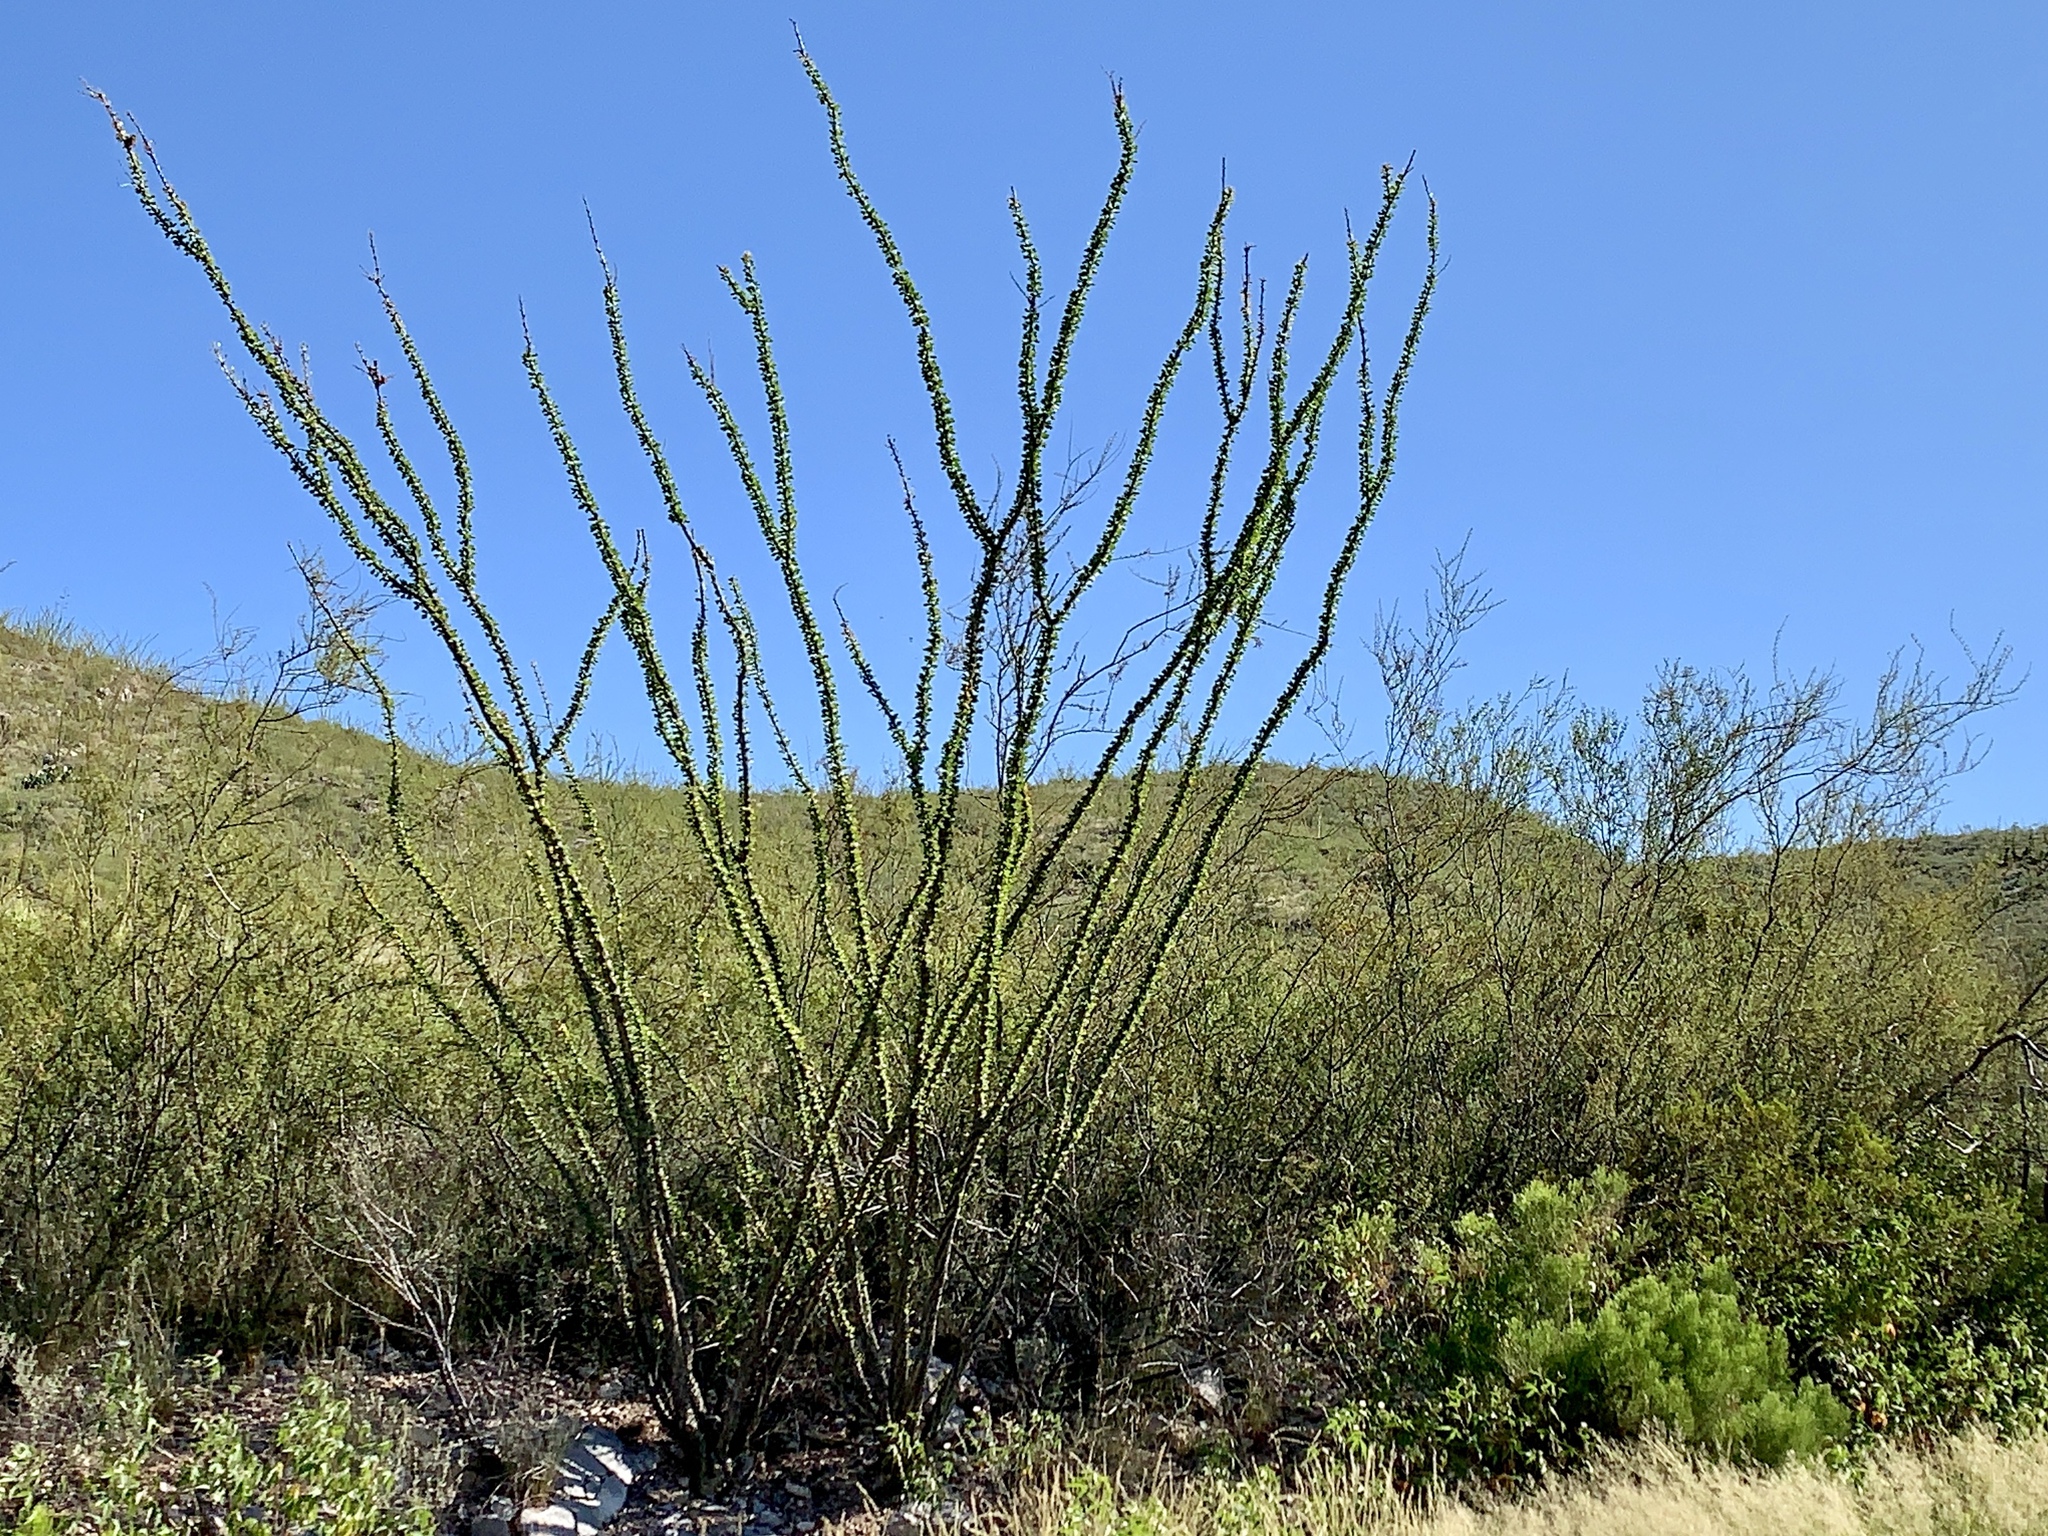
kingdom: Plantae
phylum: Tracheophyta
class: Magnoliopsida
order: Ericales
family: Fouquieriaceae
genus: Fouquieria
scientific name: Fouquieria splendens
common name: Vine-cactus
